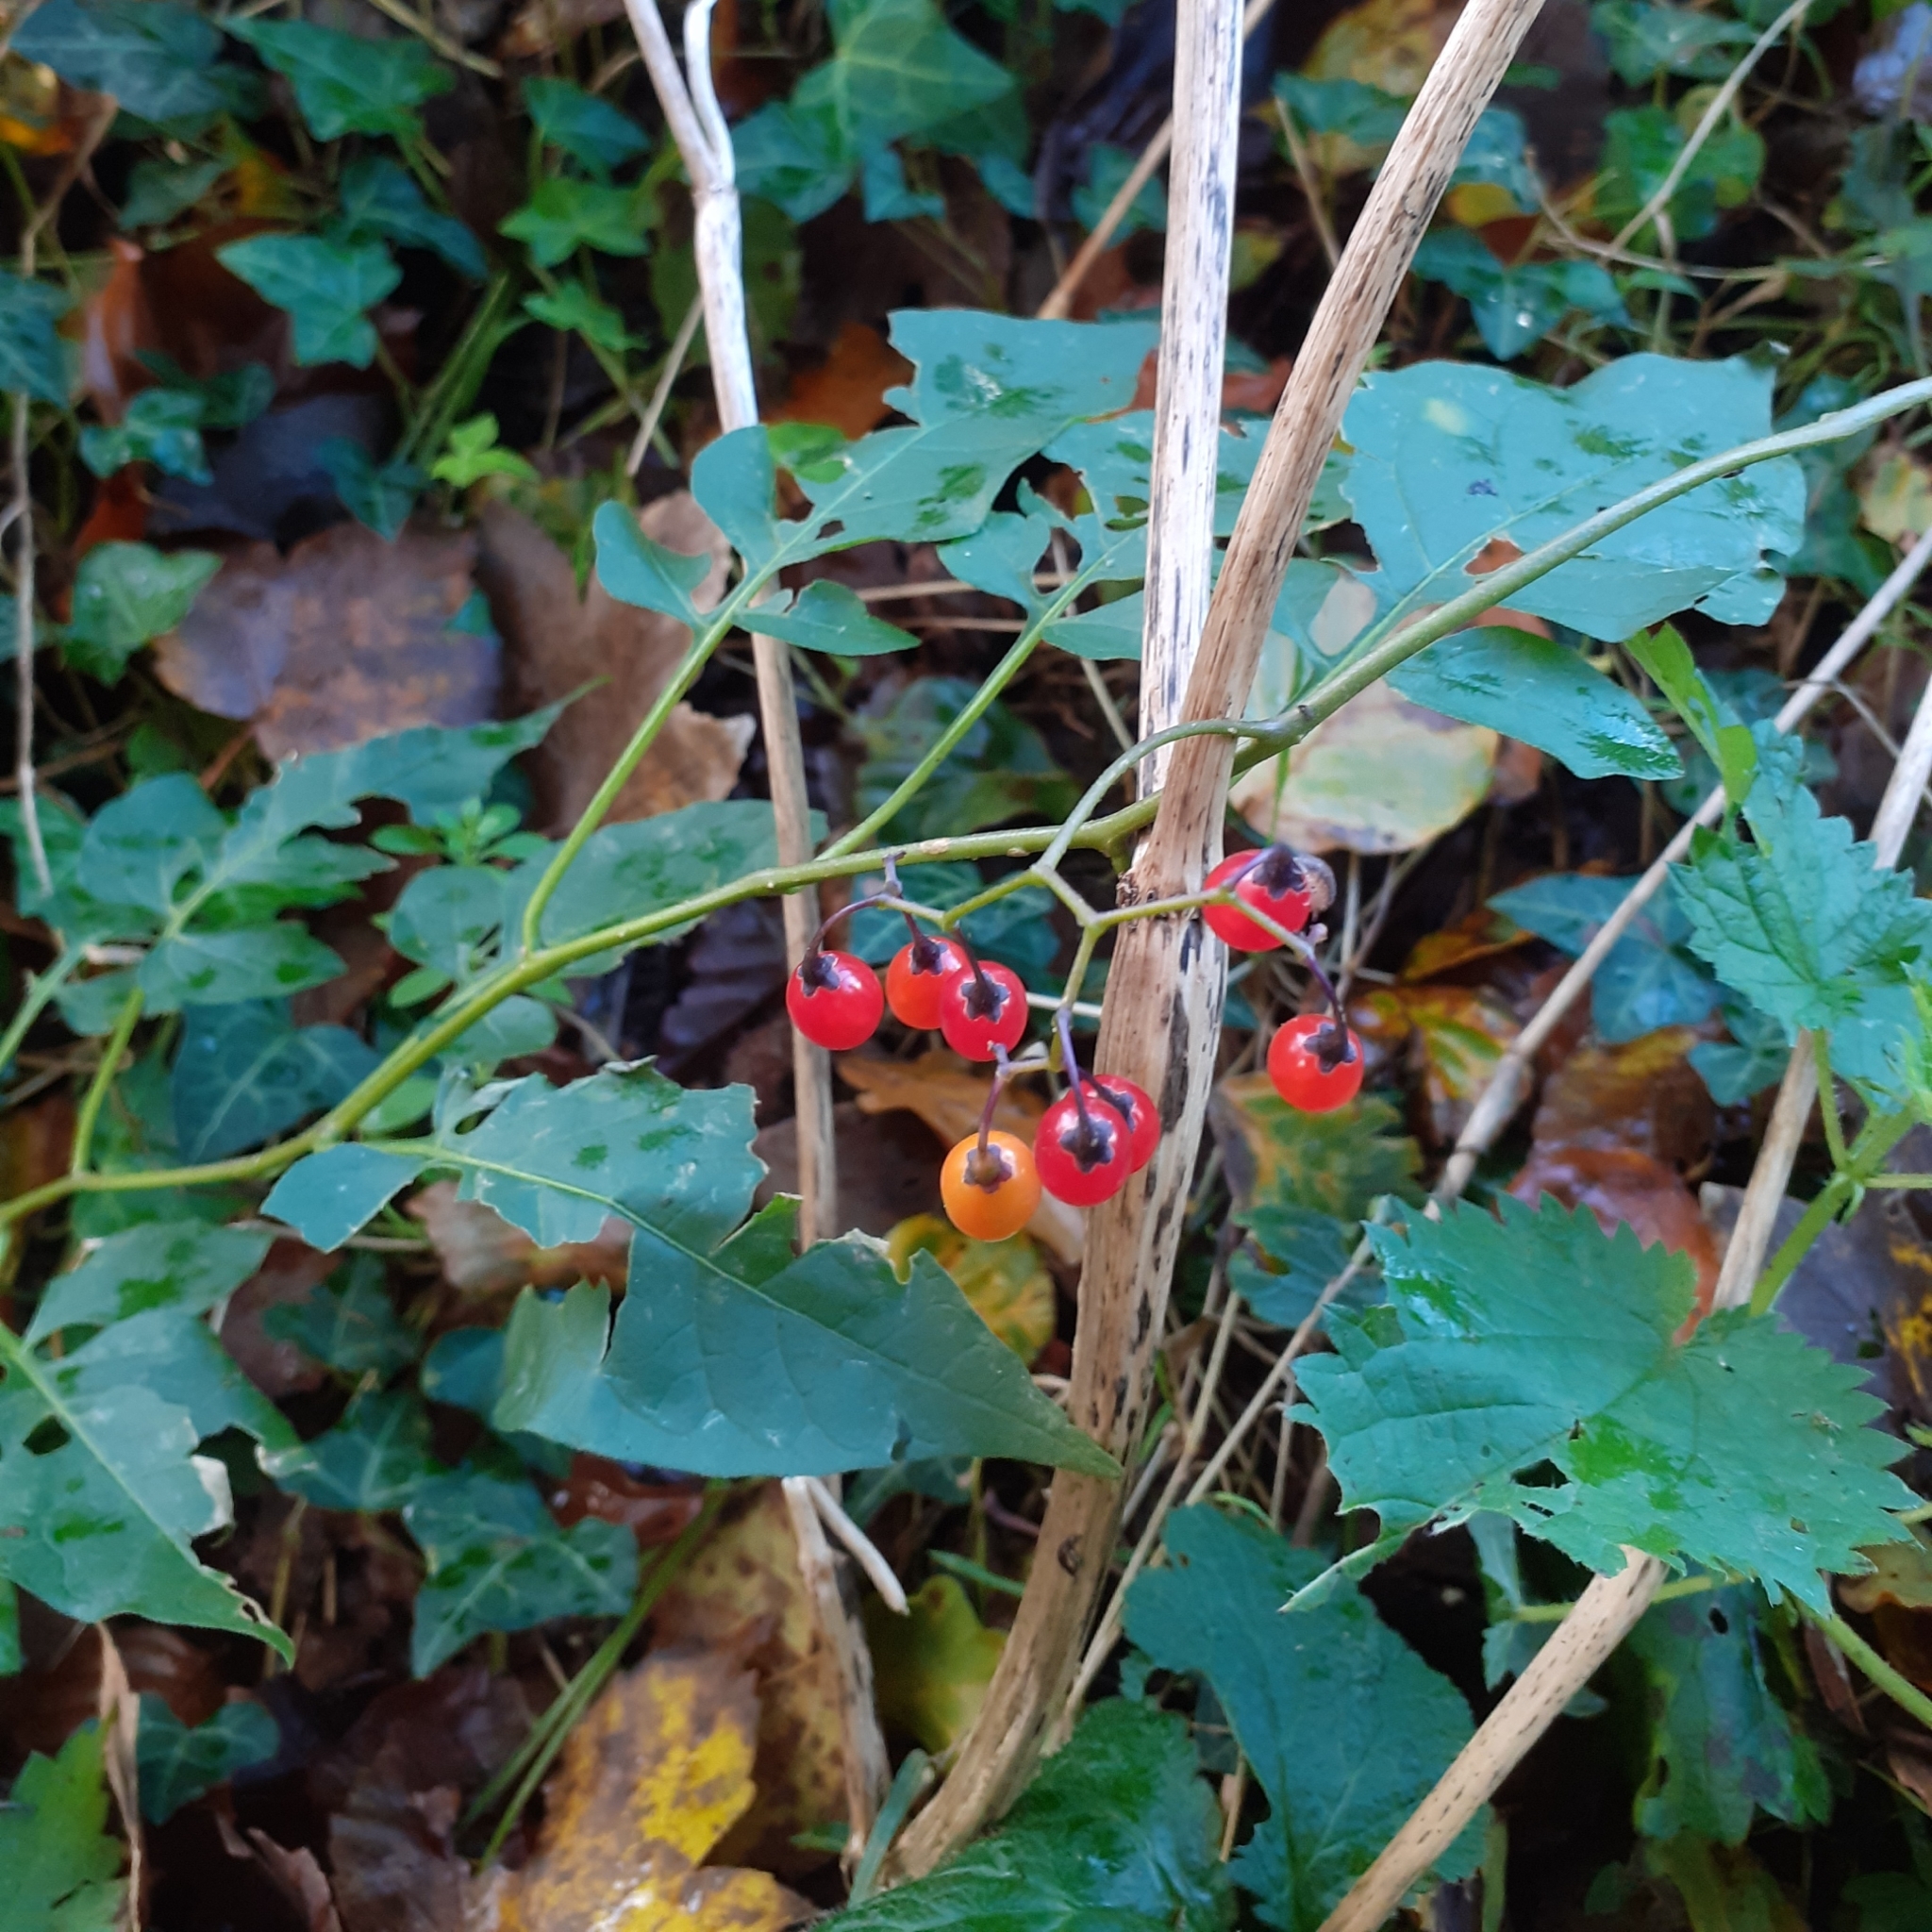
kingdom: Plantae
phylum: Tracheophyta
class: Magnoliopsida
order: Solanales
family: Solanaceae
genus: Solanum
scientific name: Solanum dulcamara
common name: Climbing nightshade
